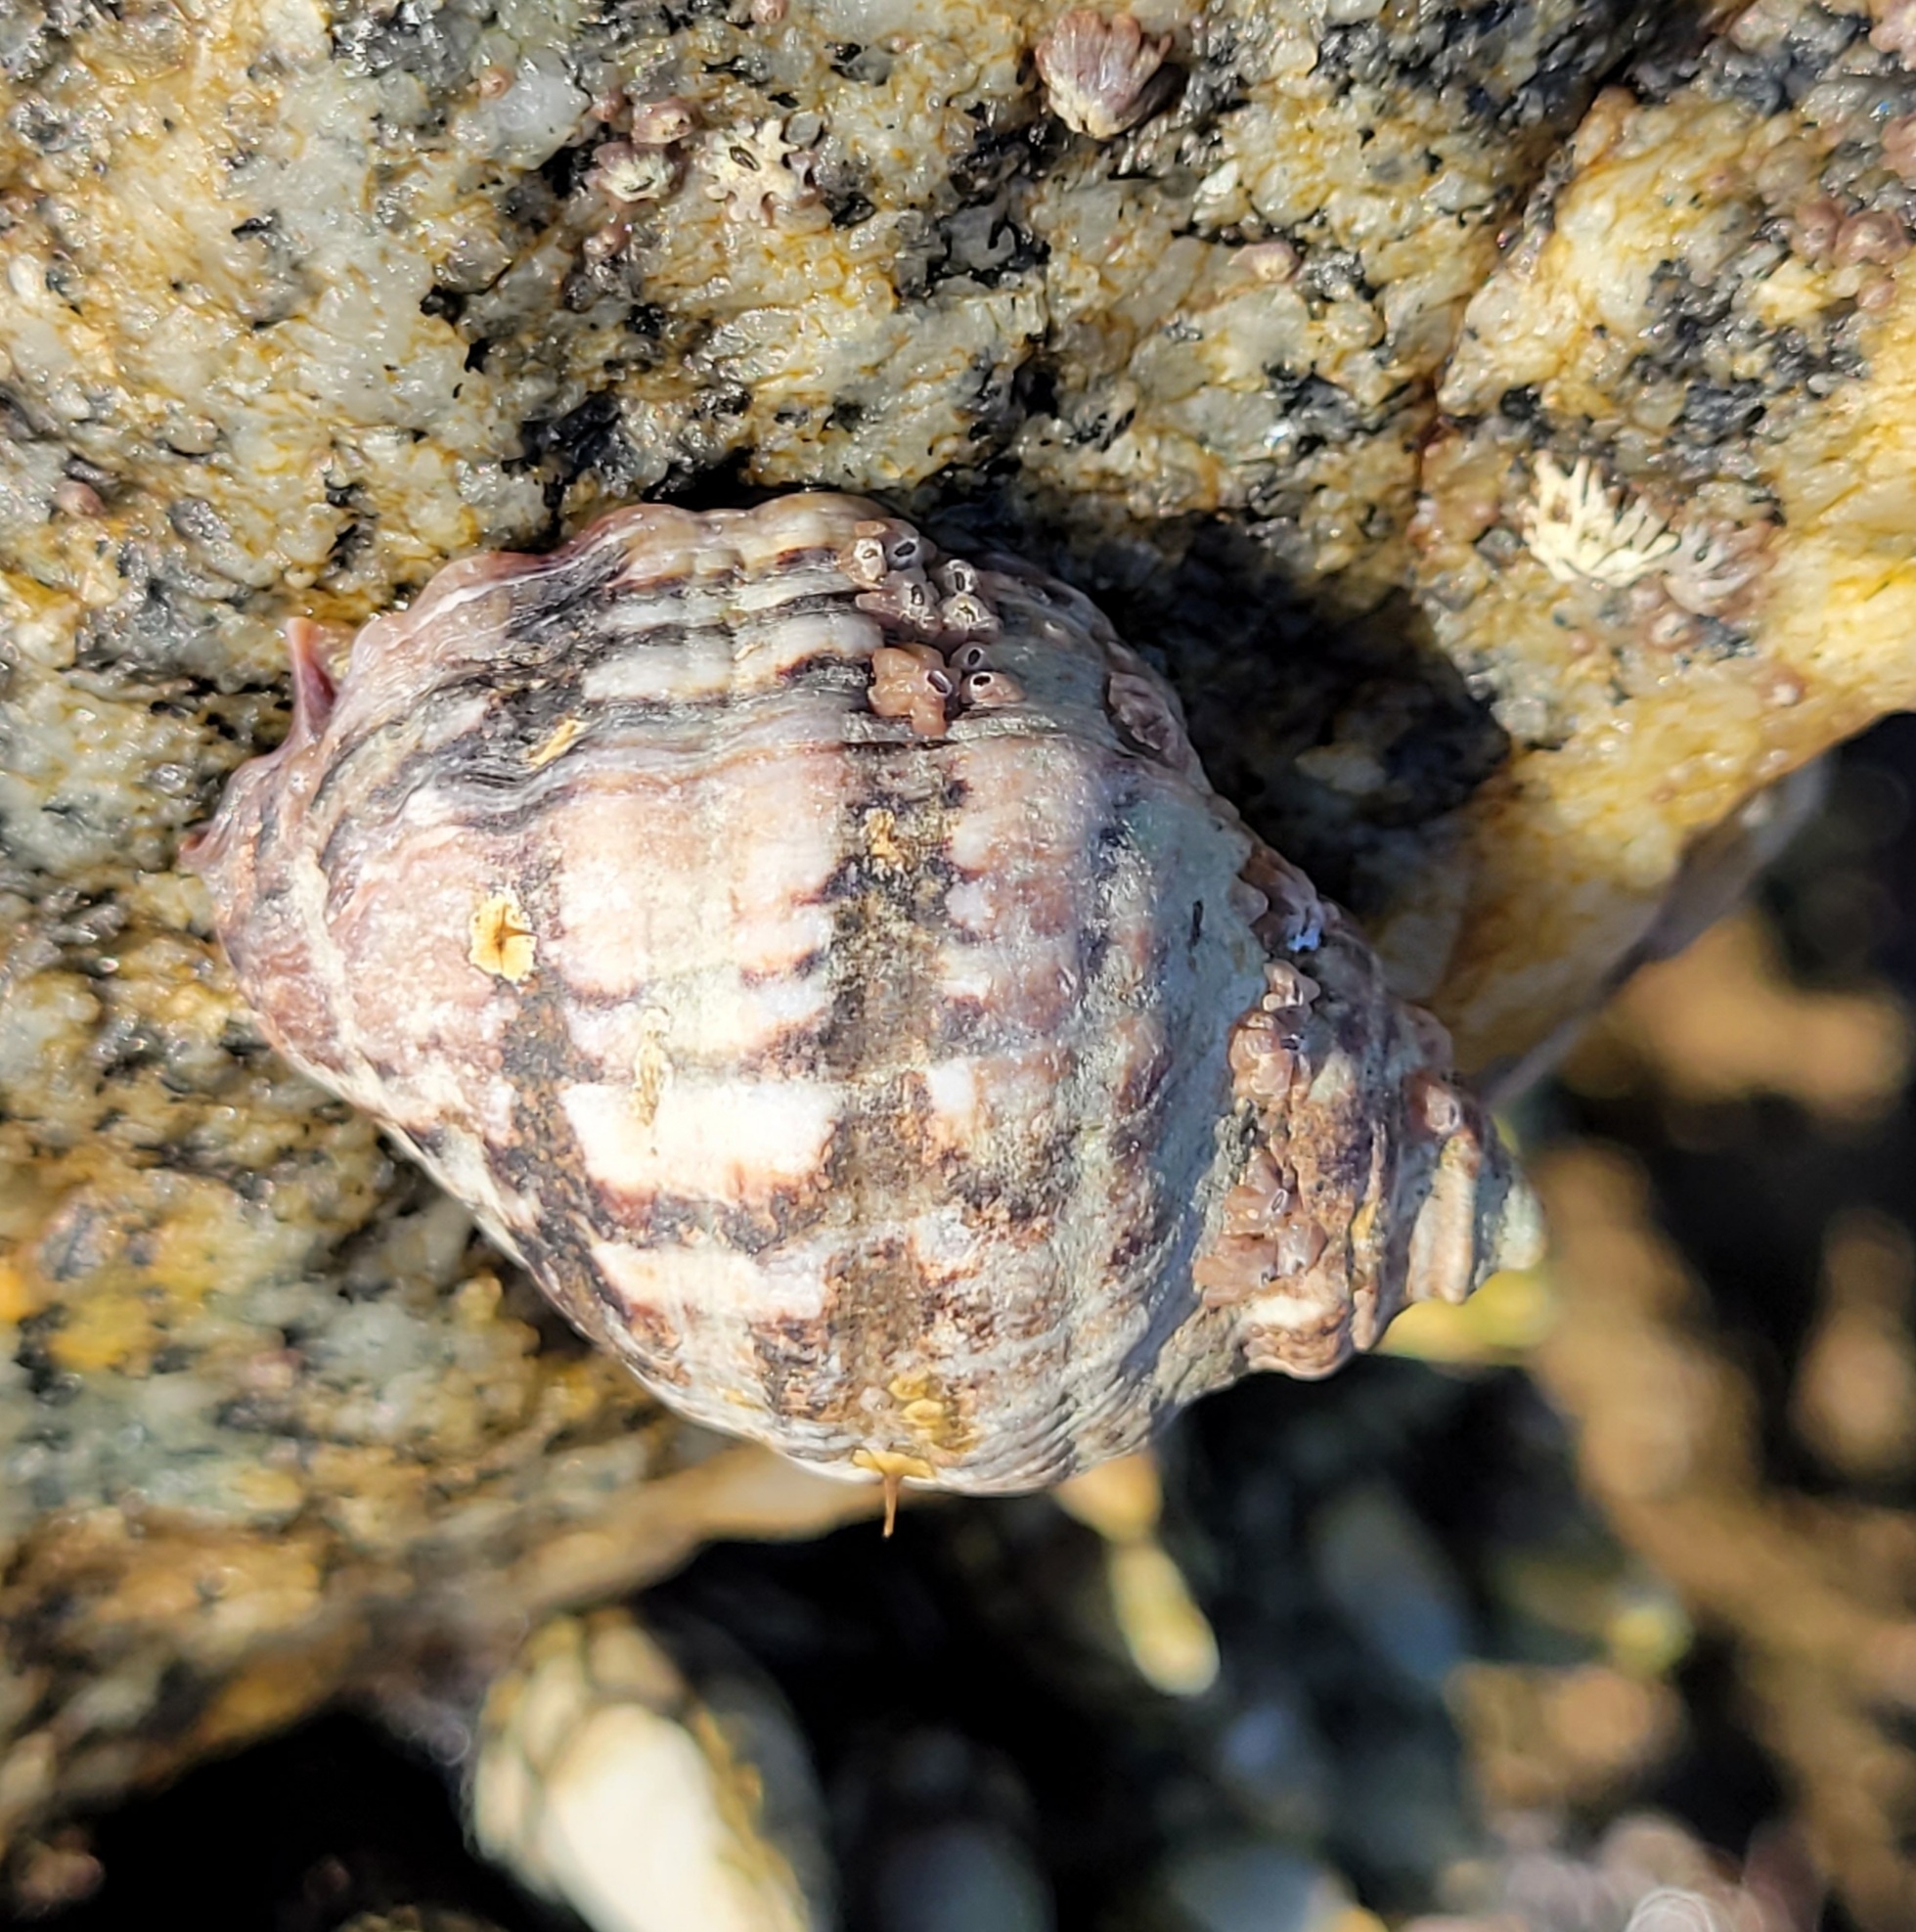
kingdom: Animalia
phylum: Mollusca
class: Gastropoda
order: Neogastropoda
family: Muricidae
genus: Mexacanthina
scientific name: Mexacanthina lugubris
